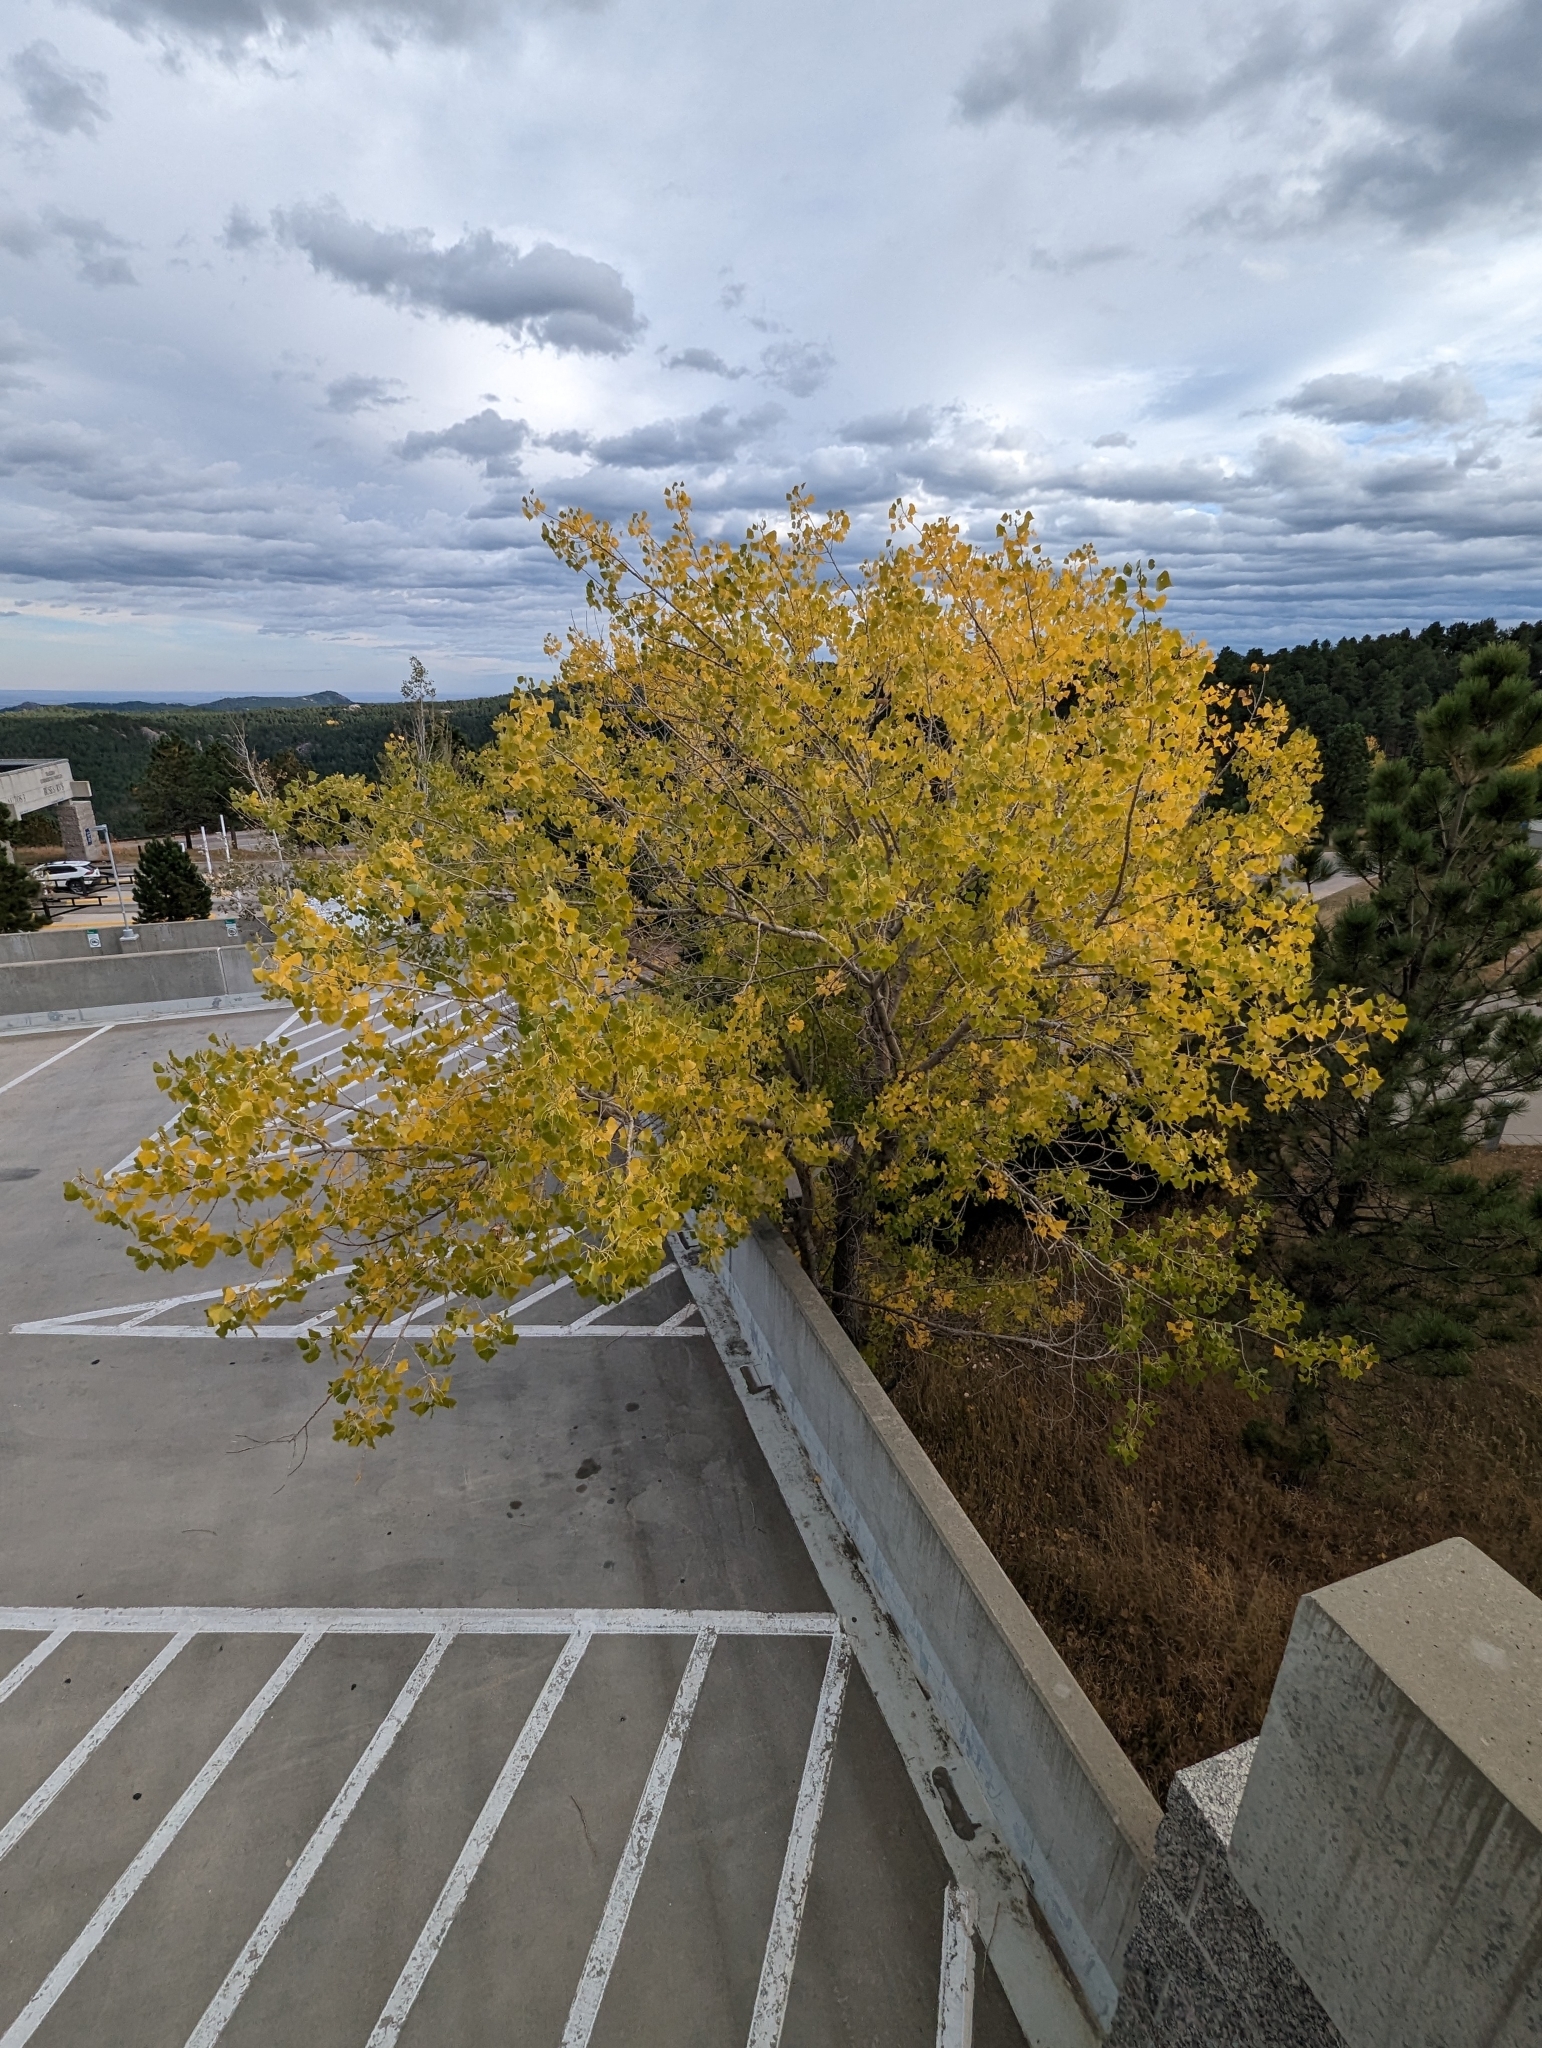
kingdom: Plantae
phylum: Tracheophyta
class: Magnoliopsida
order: Malpighiales
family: Salicaceae
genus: Populus
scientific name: Populus deltoides
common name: Eastern cottonwood
